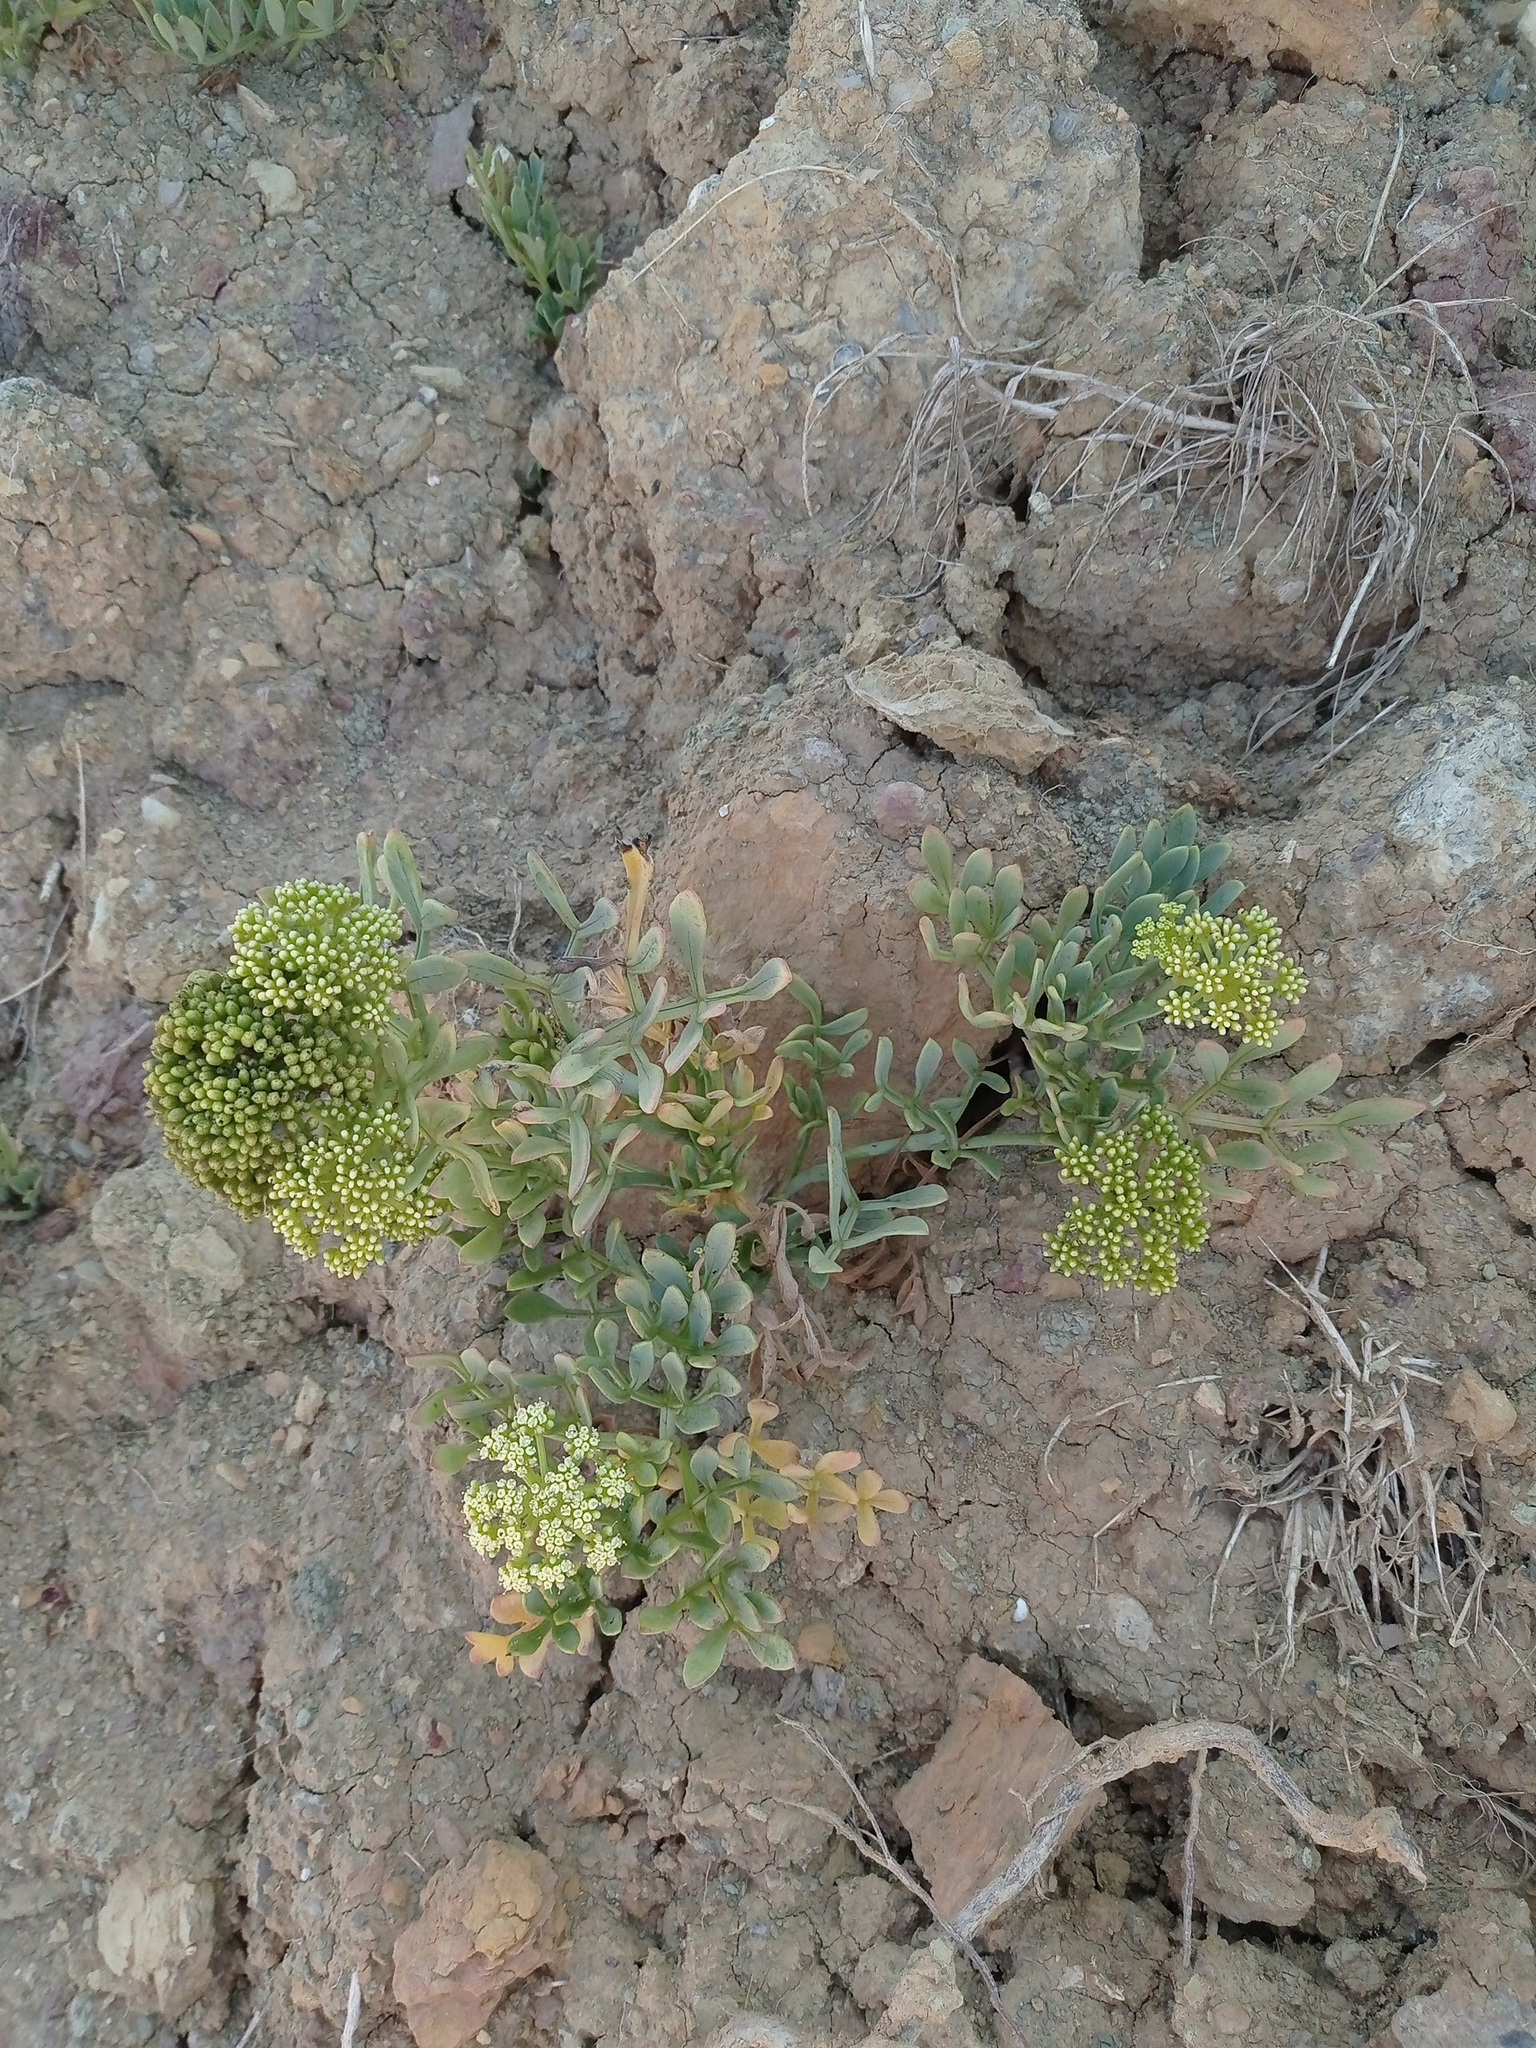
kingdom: Plantae
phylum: Tracheophyta
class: Magnoliopsida
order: Apiales
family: Apiaceae
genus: Crithmum
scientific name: Crithmum maritimum
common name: Rock samphire
